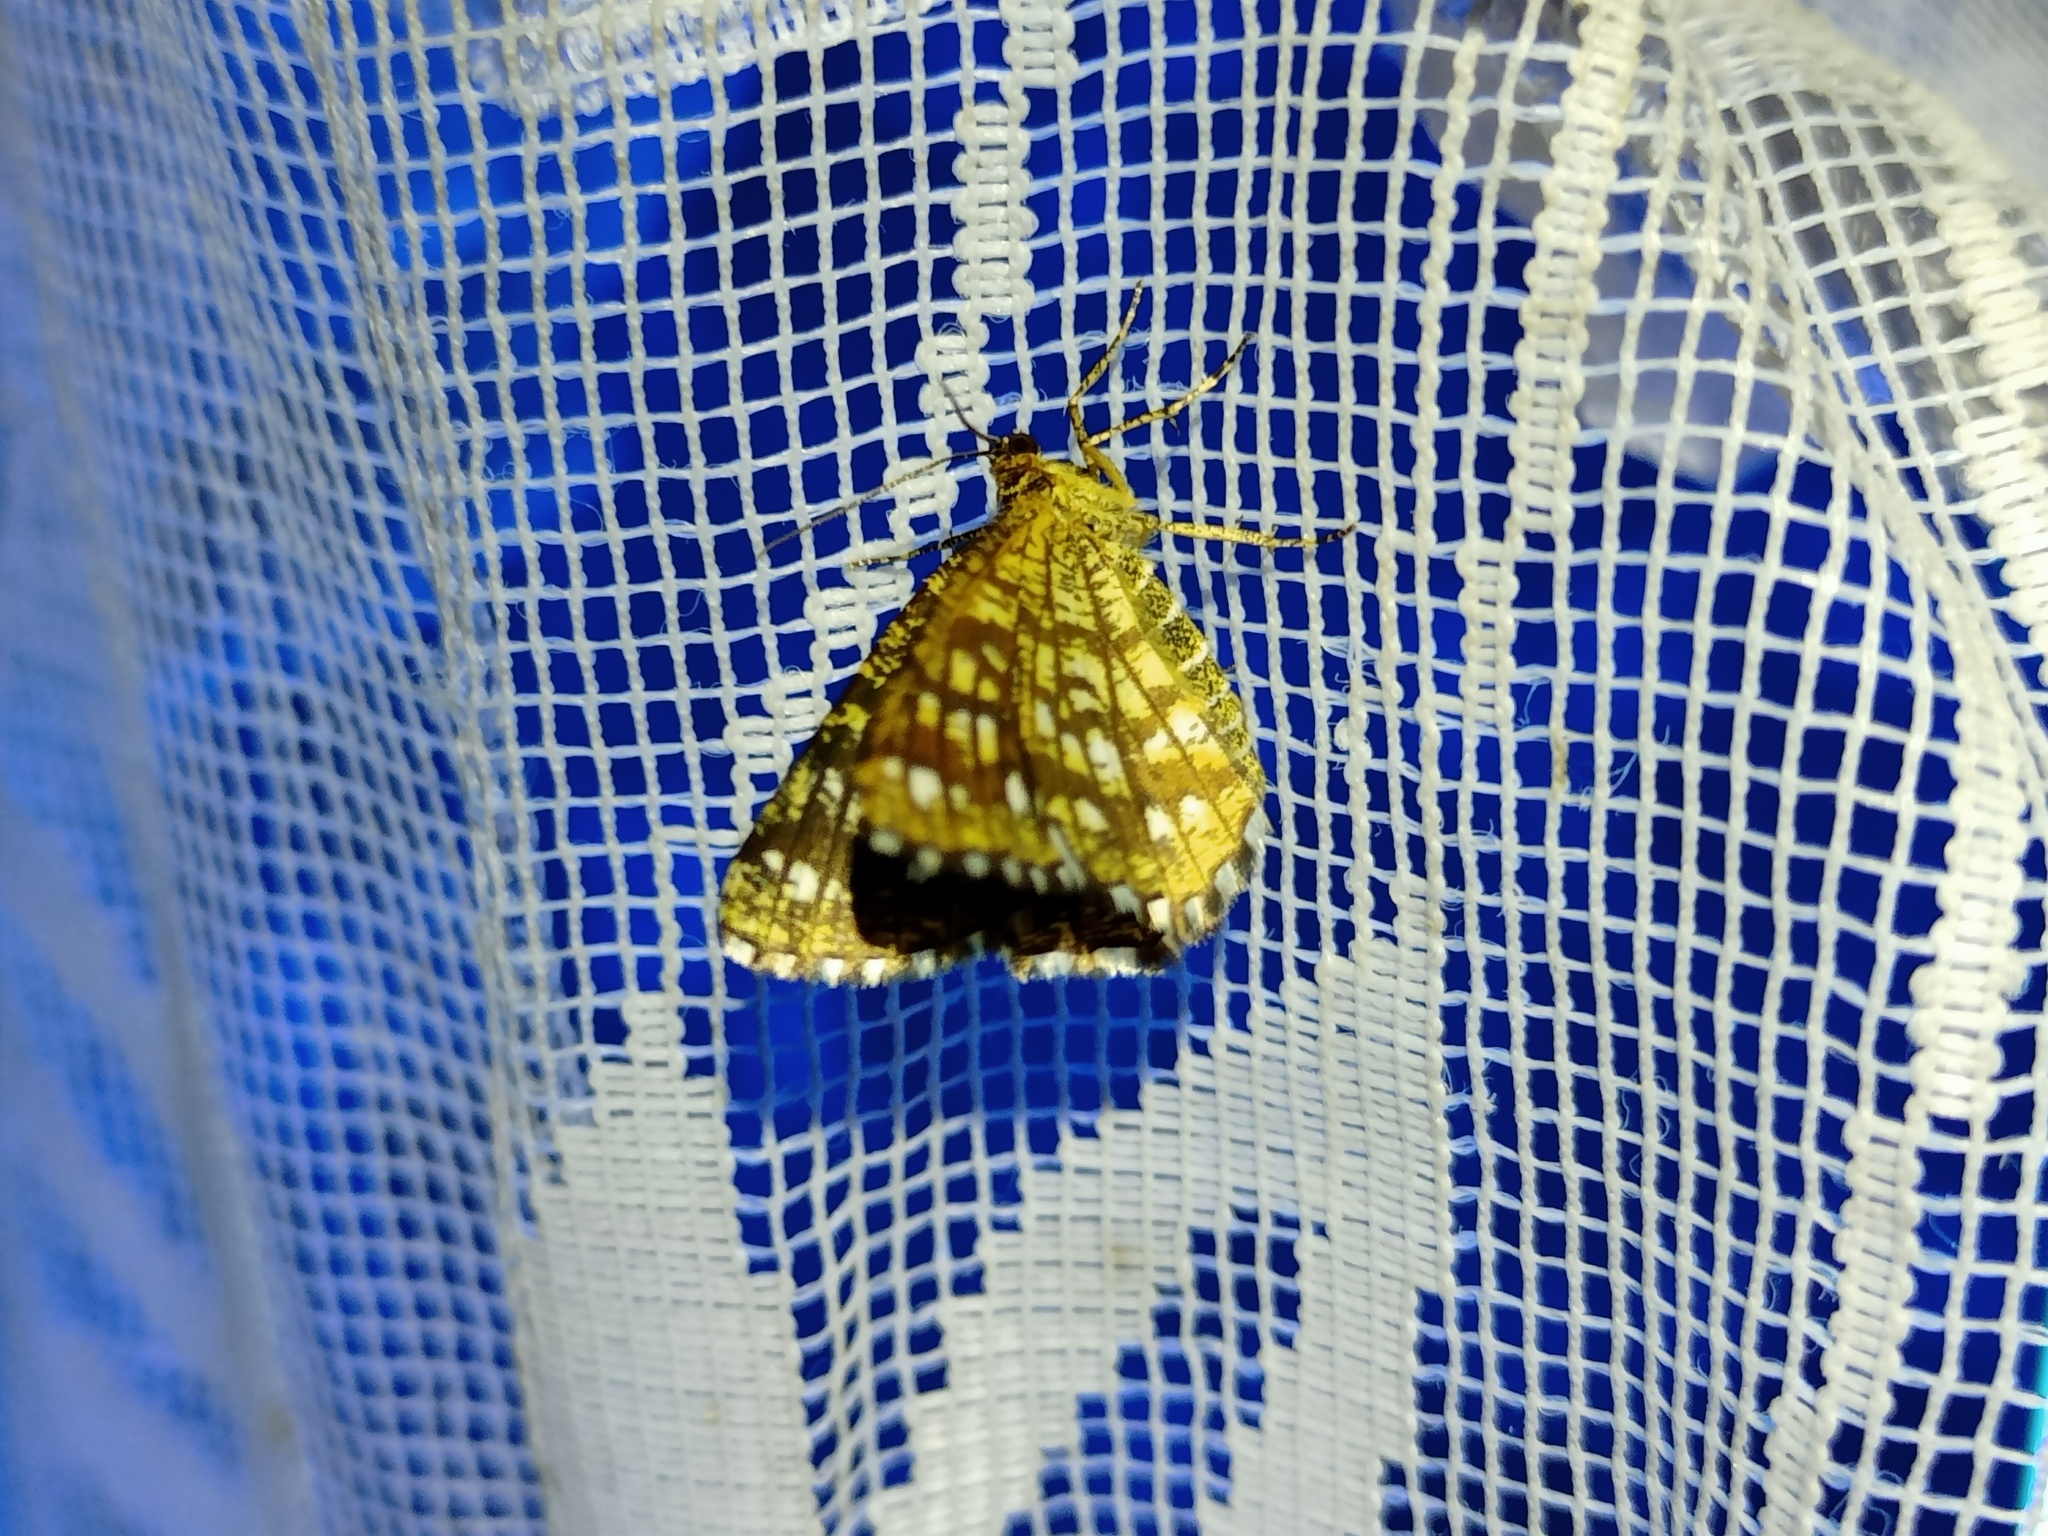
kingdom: Animalia
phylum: Arthropoda
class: Insecta
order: Lepidoptera
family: Geometridae
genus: Chiasmia
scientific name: Chiasmia clathrata
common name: Latticed heath
